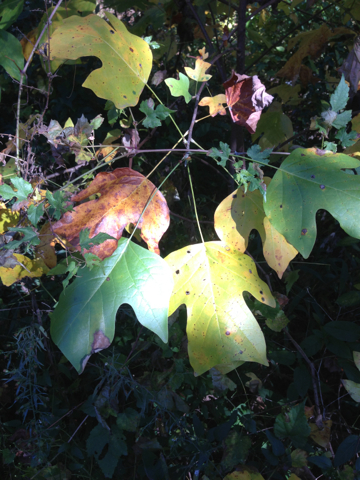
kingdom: Plantae
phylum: Tracheophyta
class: Magnoliopsida
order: Magnoliales
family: Magnoliaceae
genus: Liriodendron
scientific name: Liriodendron tulipifera
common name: Tulip tree
